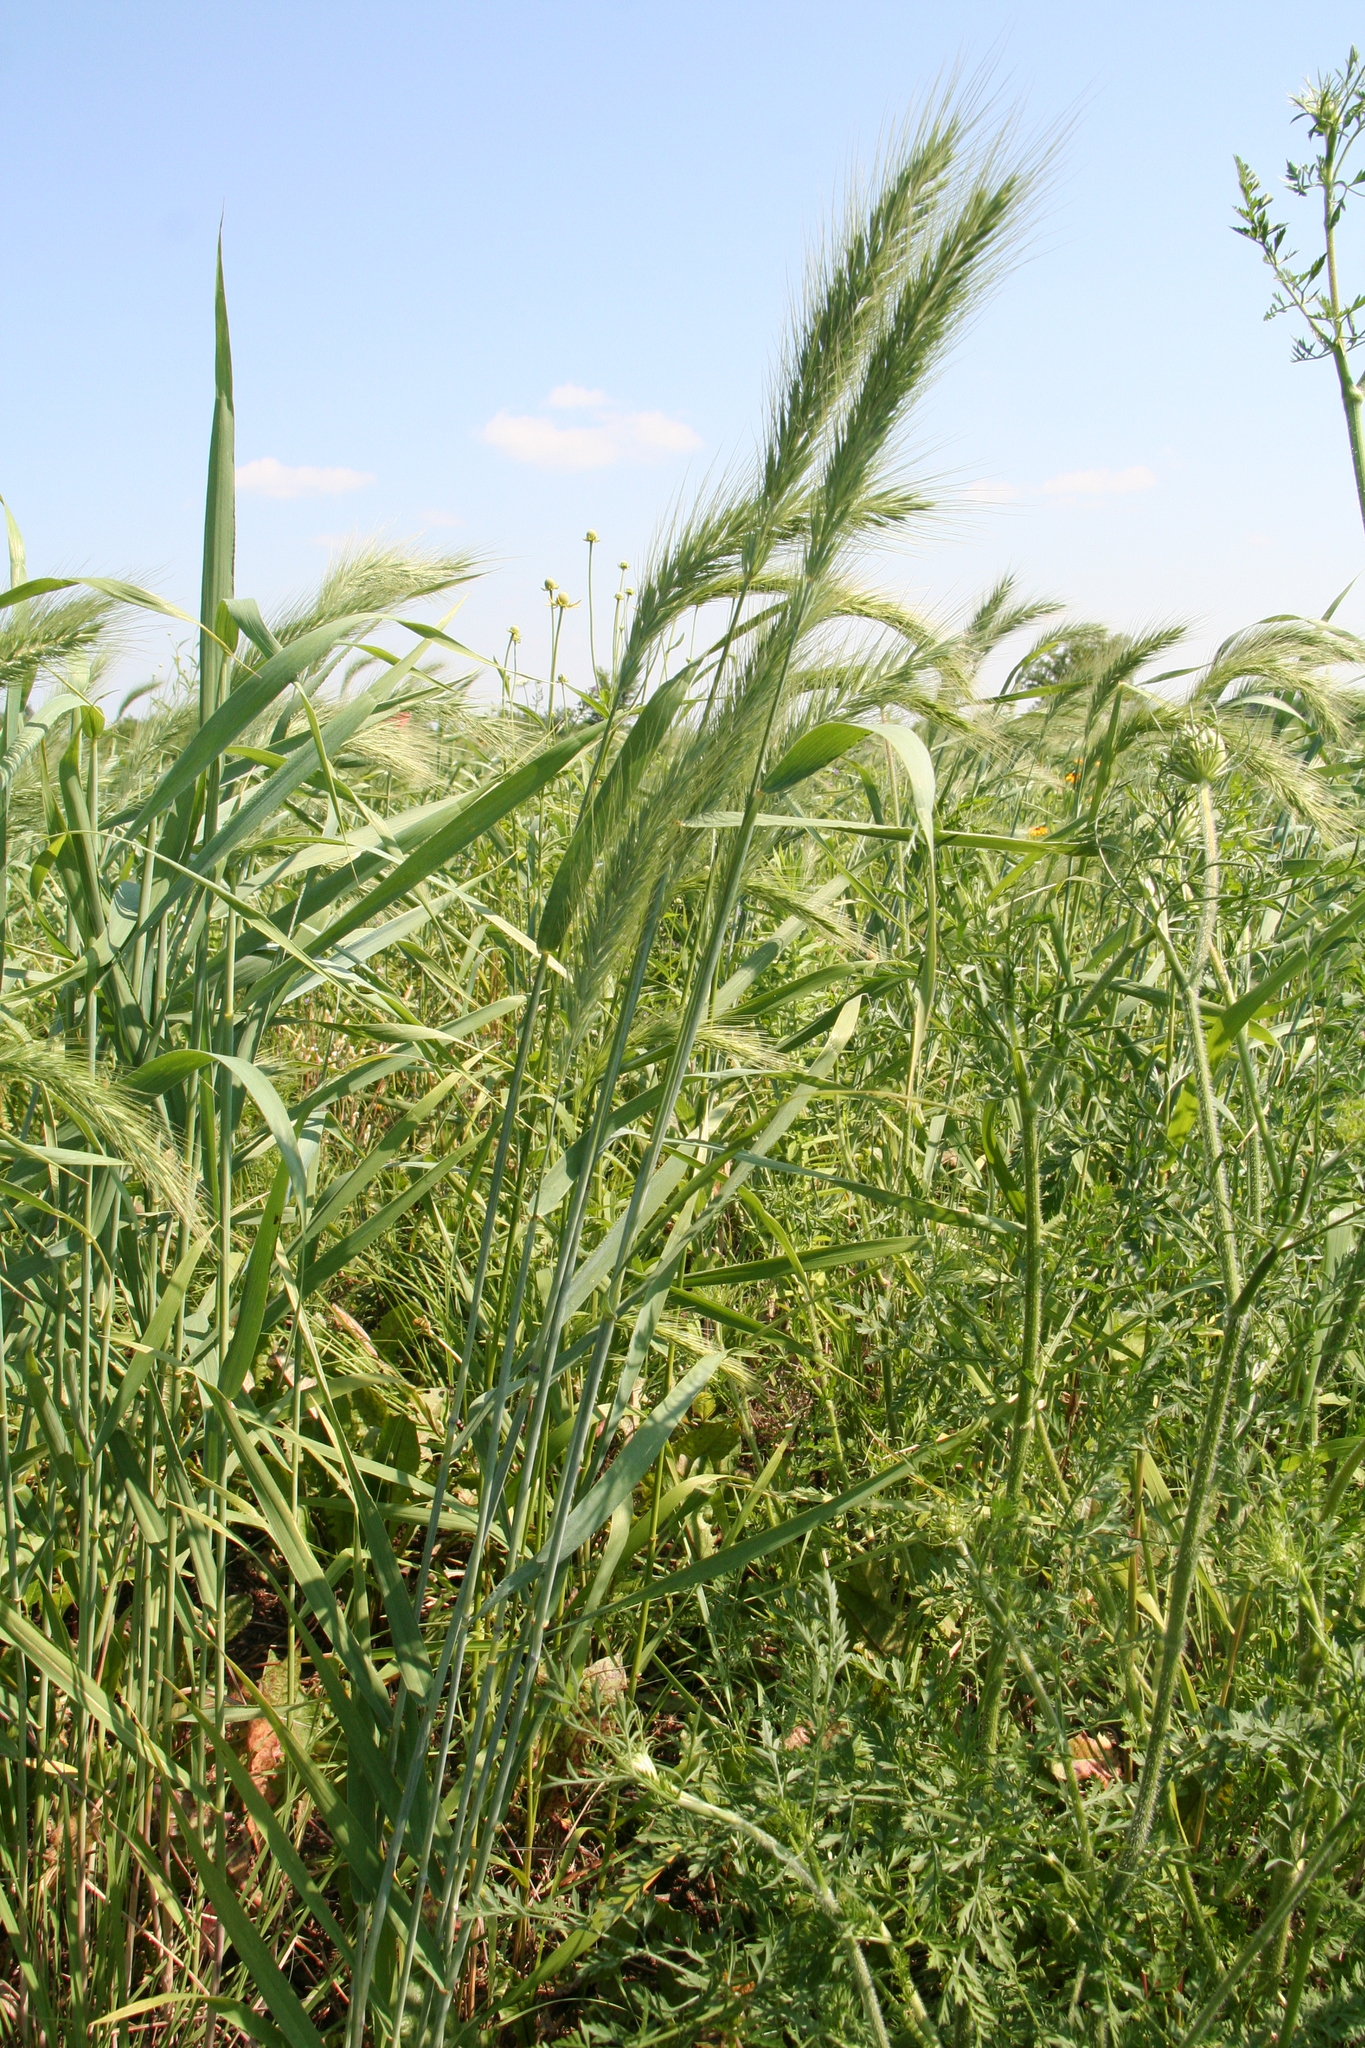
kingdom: Plantae
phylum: Tracheophyta
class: Liliopsida
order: Poales
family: Poaceae
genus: Elymus
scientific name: Elymus canadensis
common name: Canada wild rye
